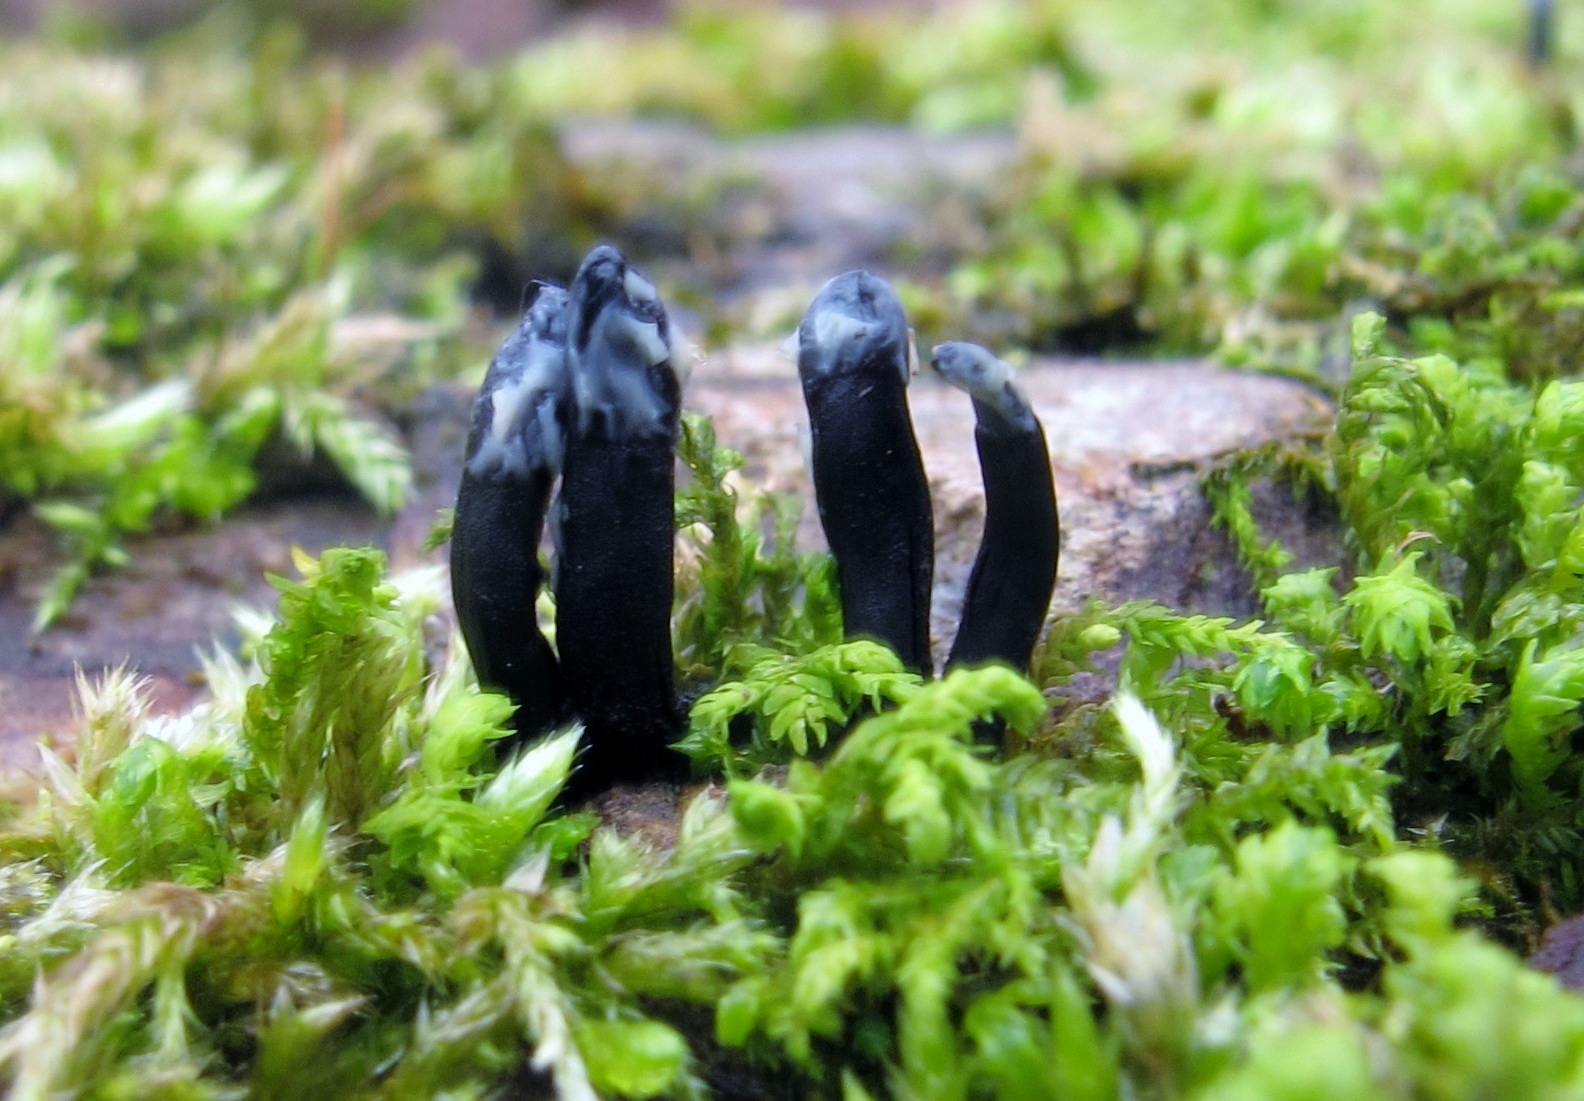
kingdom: Fungi
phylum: Ascomycota
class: Leotiomycetes
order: Helotiales
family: Bulgariaceae
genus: Holwaya
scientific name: Holwaya mucida
